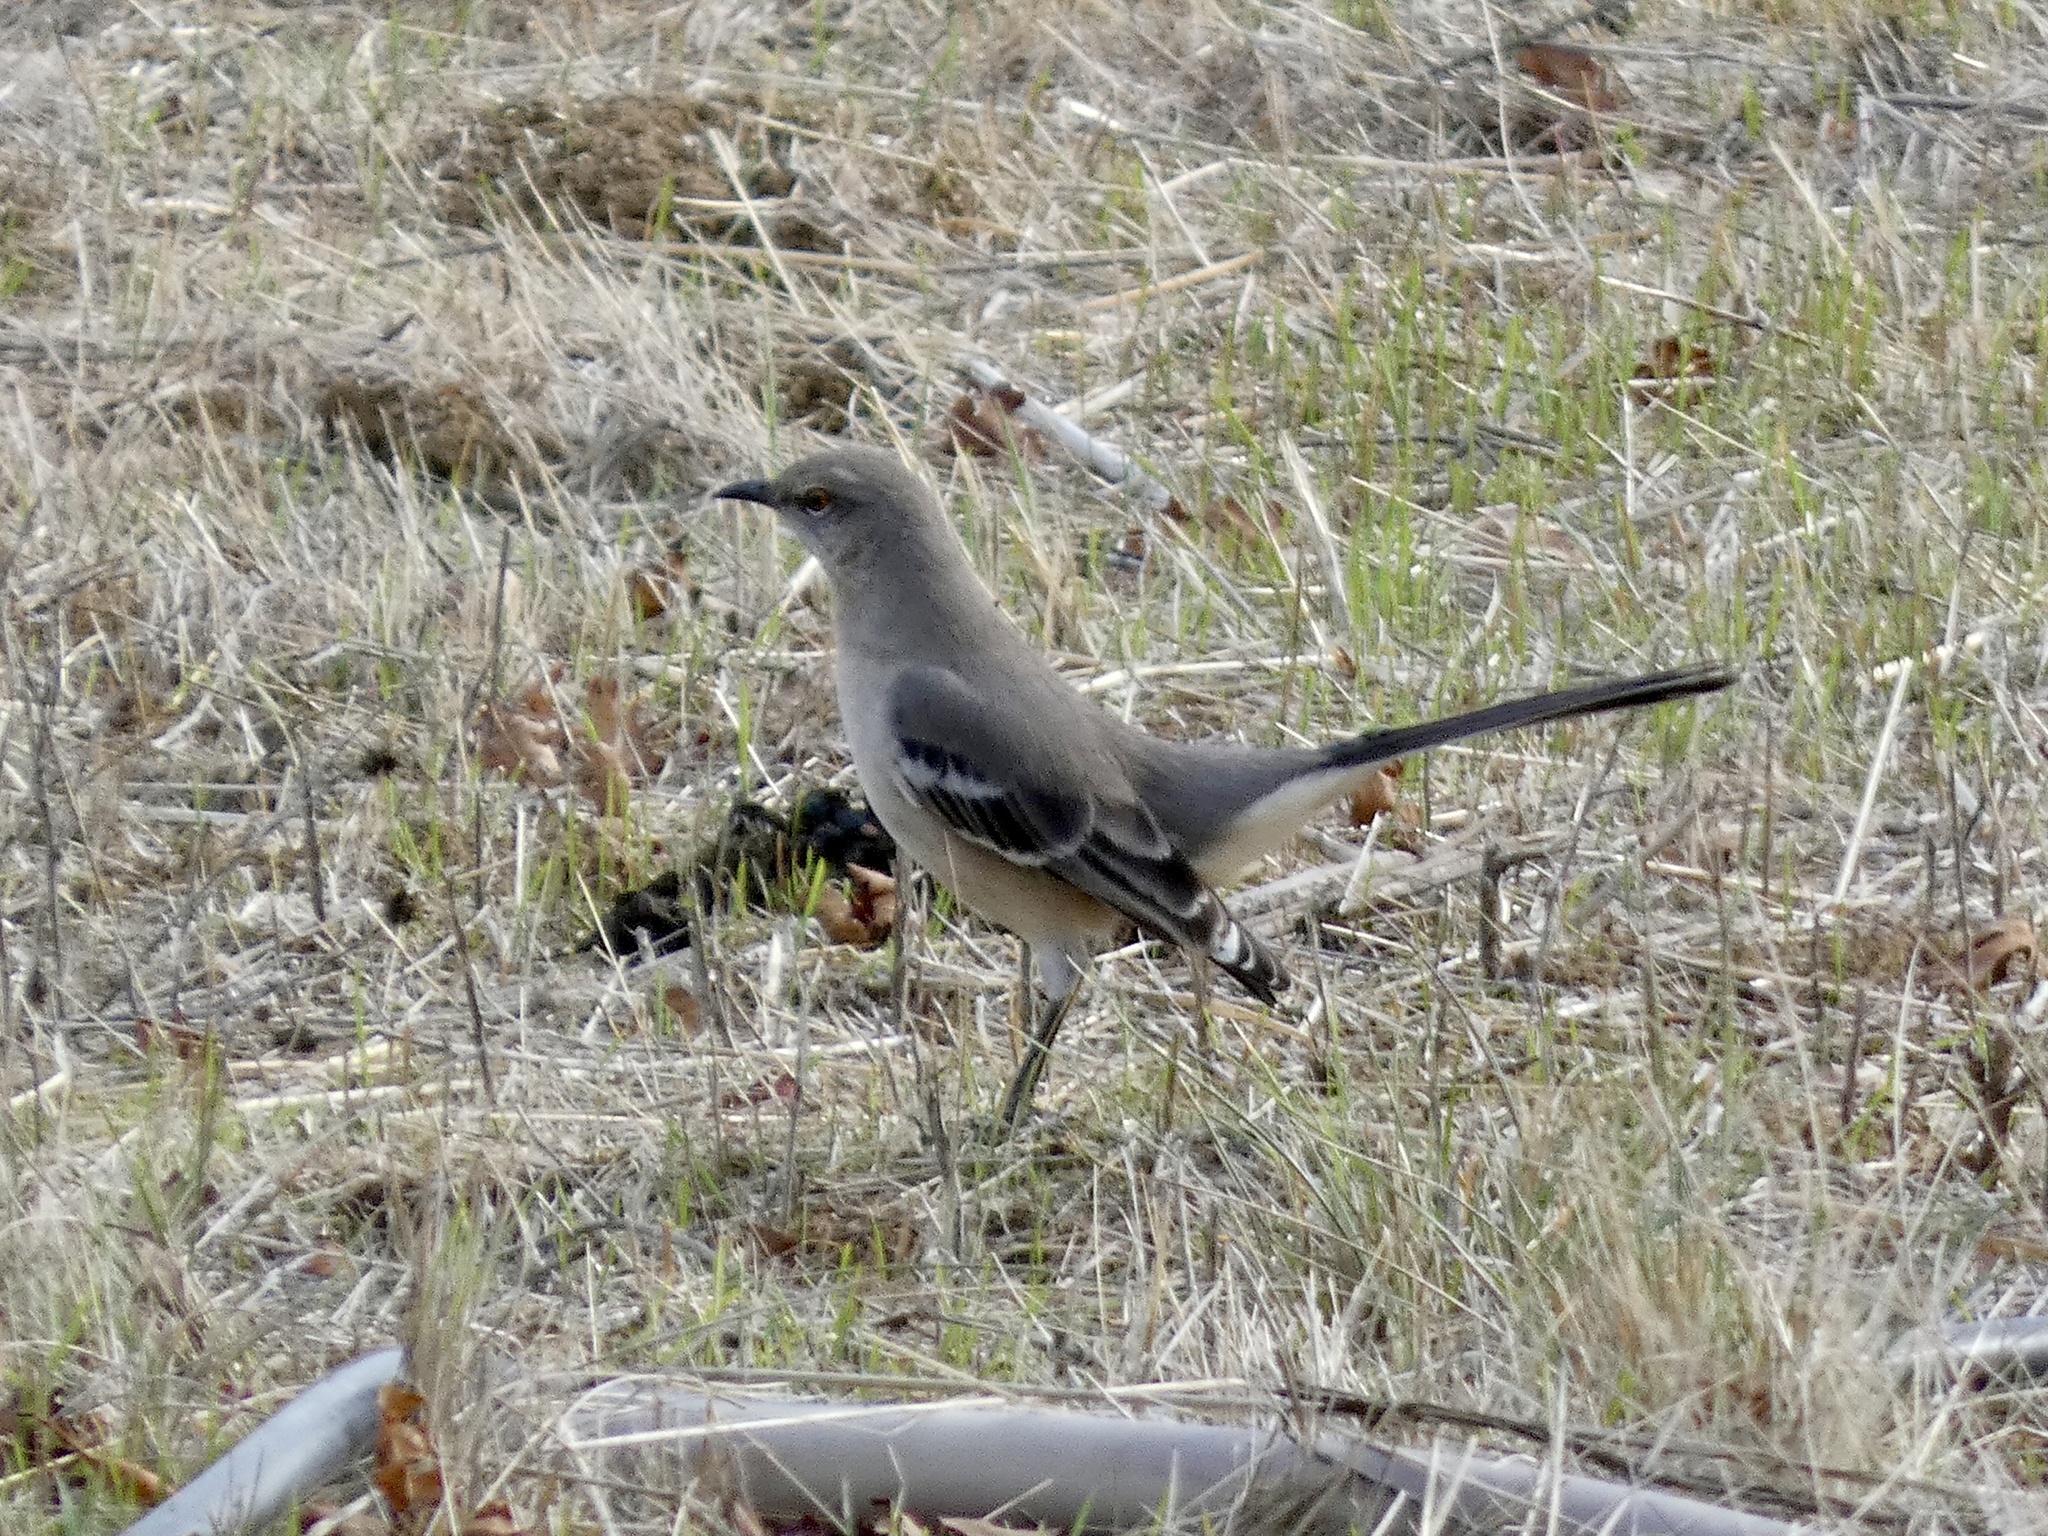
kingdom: Animalia
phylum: Chordata
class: Aves
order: Passeriformes
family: Mimidae
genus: Mimus
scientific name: Mimus polyglottos
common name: Northern mockingbird
